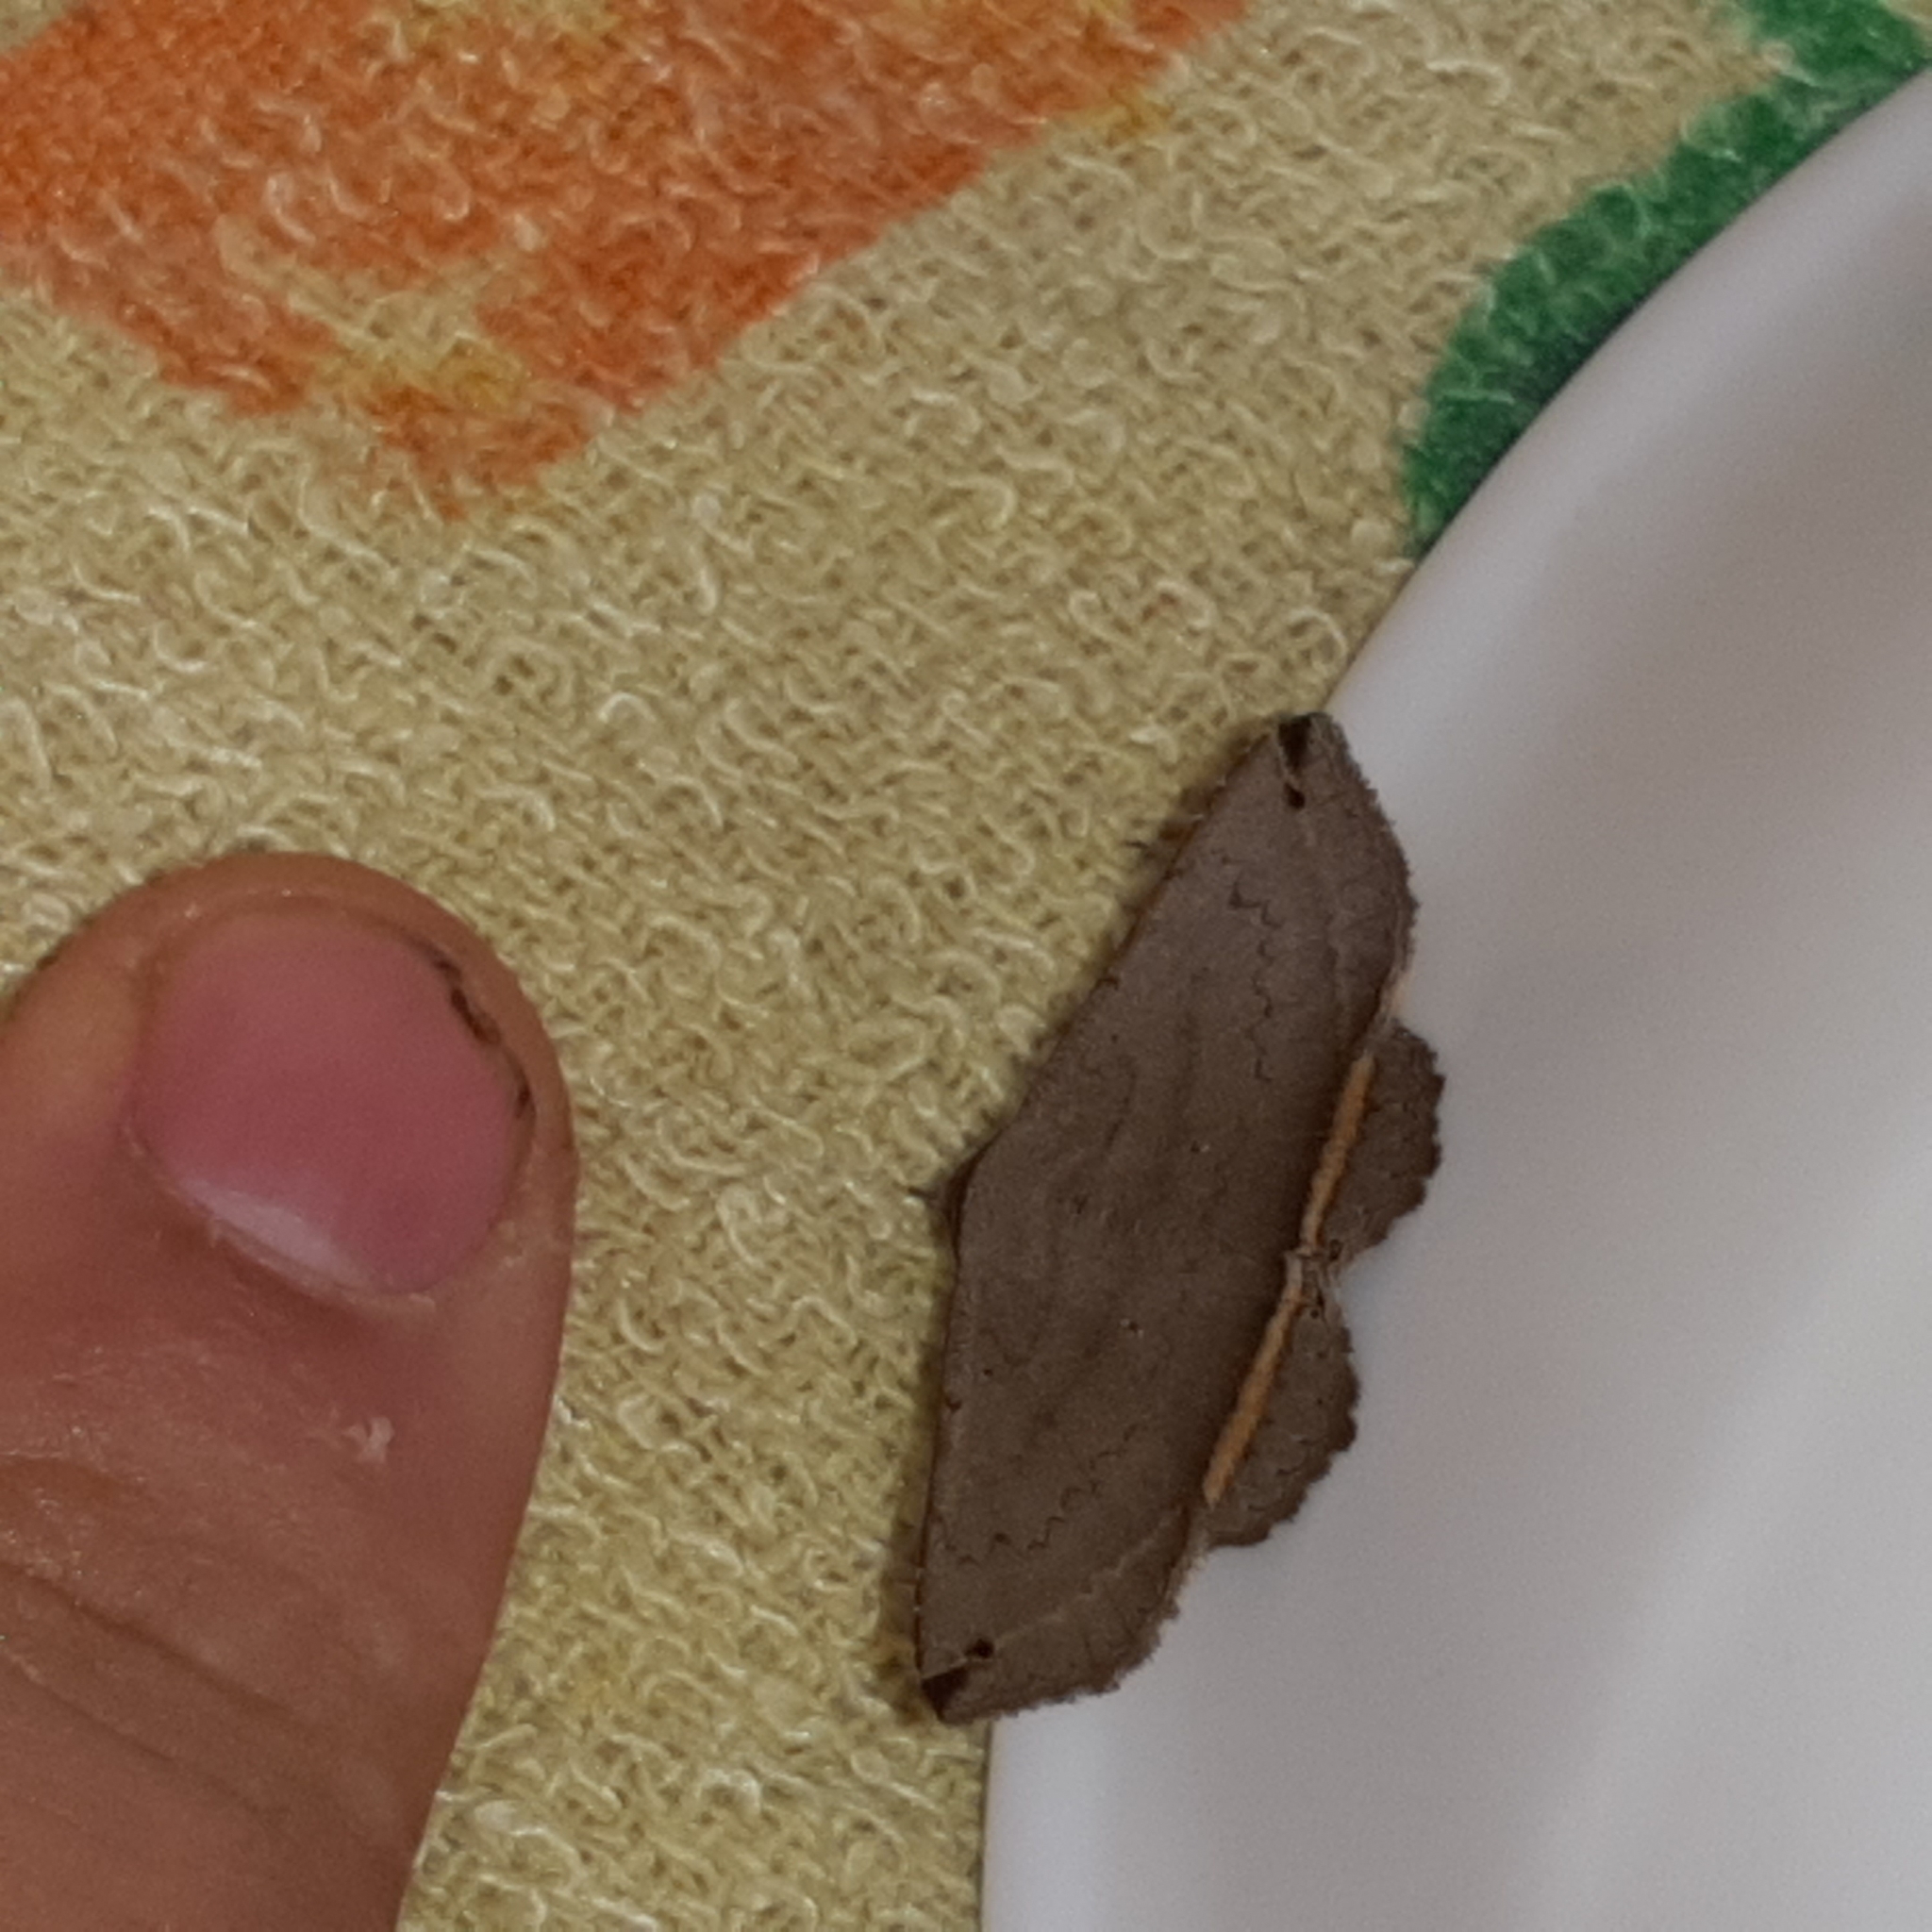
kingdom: Animalia
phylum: Arthropoda
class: Insecta
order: Lepidoptera
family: Erebidae
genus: Lesmone
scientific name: Lesmone formularis
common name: Lesmone moth
